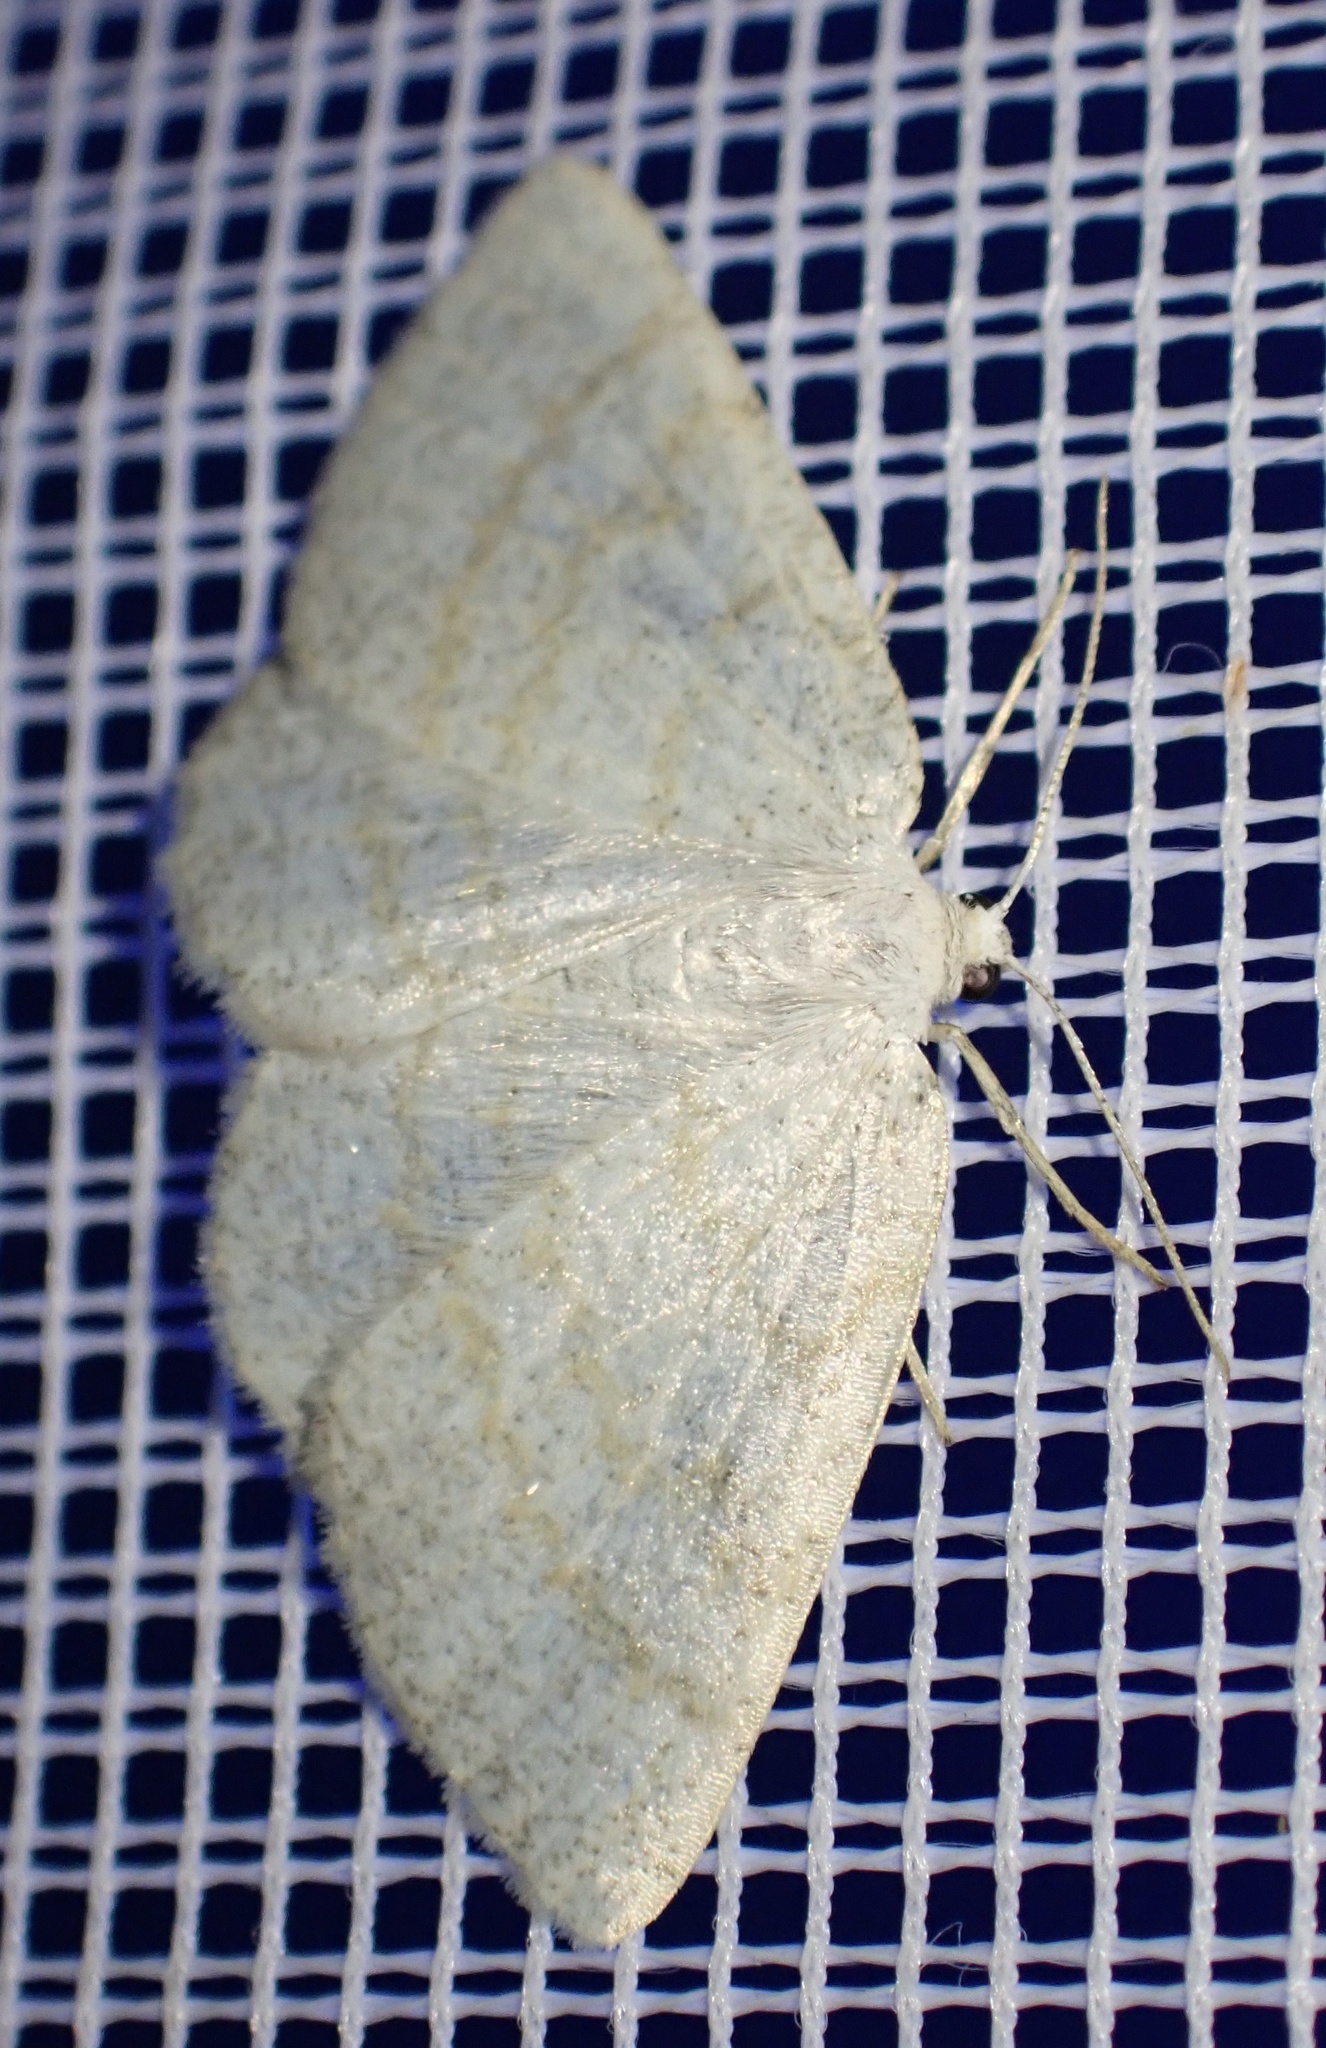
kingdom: Animalia
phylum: Arthropoda
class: Insecta
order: Lepidoptera
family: Geometridae
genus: Cabera
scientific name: Cabera exanthemata
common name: Common wave
